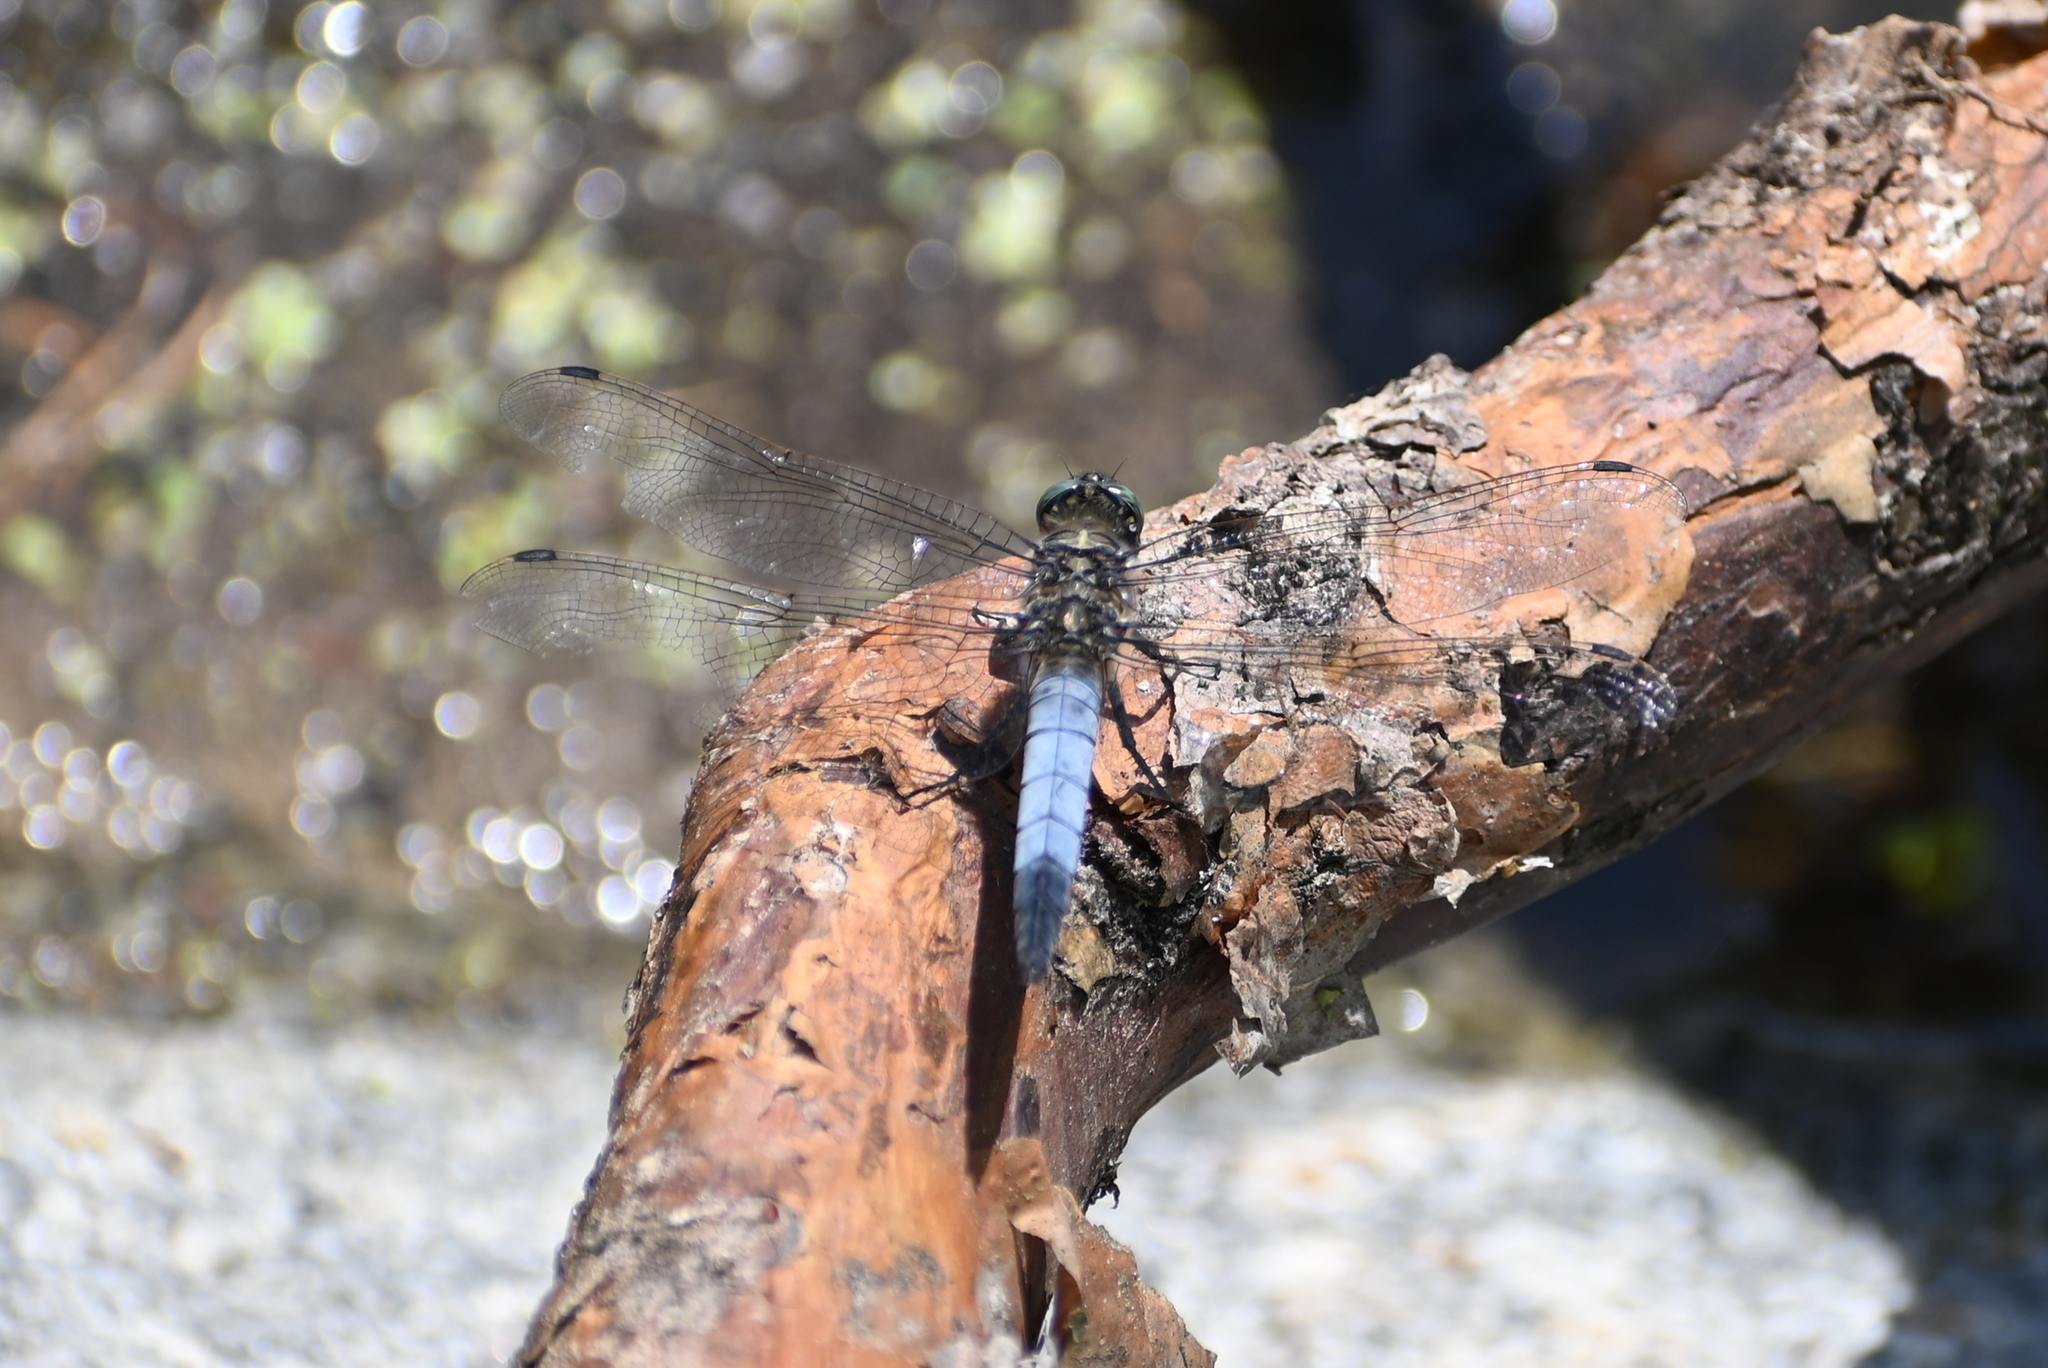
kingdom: Animalia
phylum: Arthropoda
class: Insecta
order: Odonata
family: Libellulidae
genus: Orthetrum
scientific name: Orthetrum cancellatum
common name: Black-tailed skimmer
